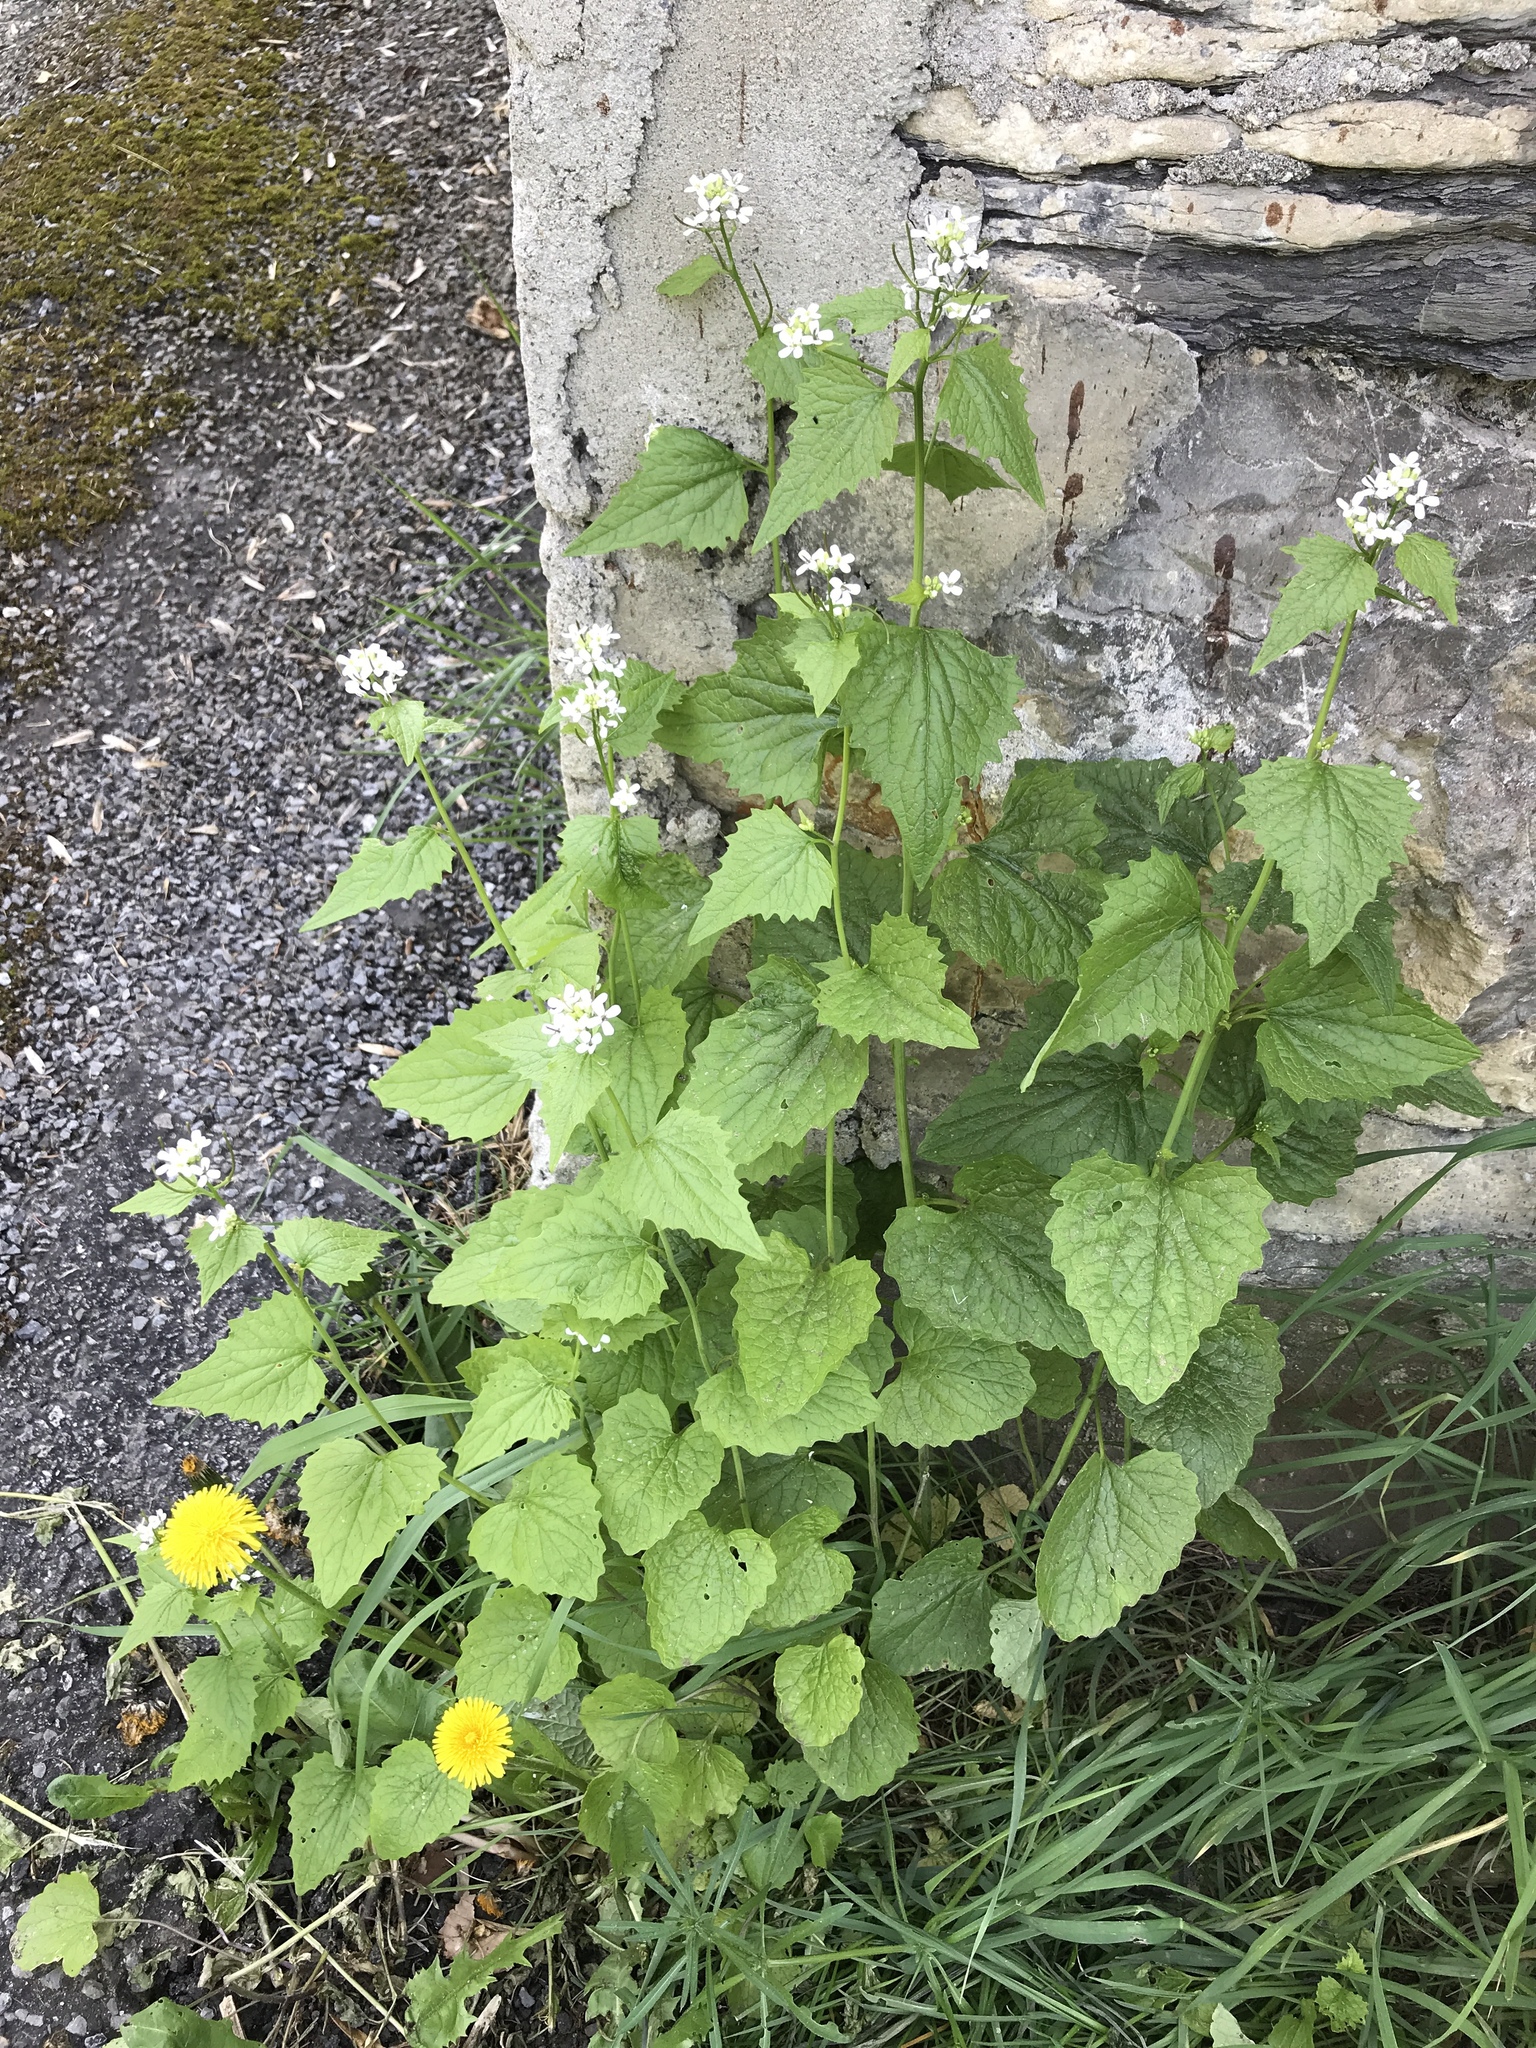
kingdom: Plantae
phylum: Tracheophyta
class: Magnoliopsida
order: Brassicales
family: Brassicaceae
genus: Alliaria
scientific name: Alliaria petiolata
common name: Garlic mustard
